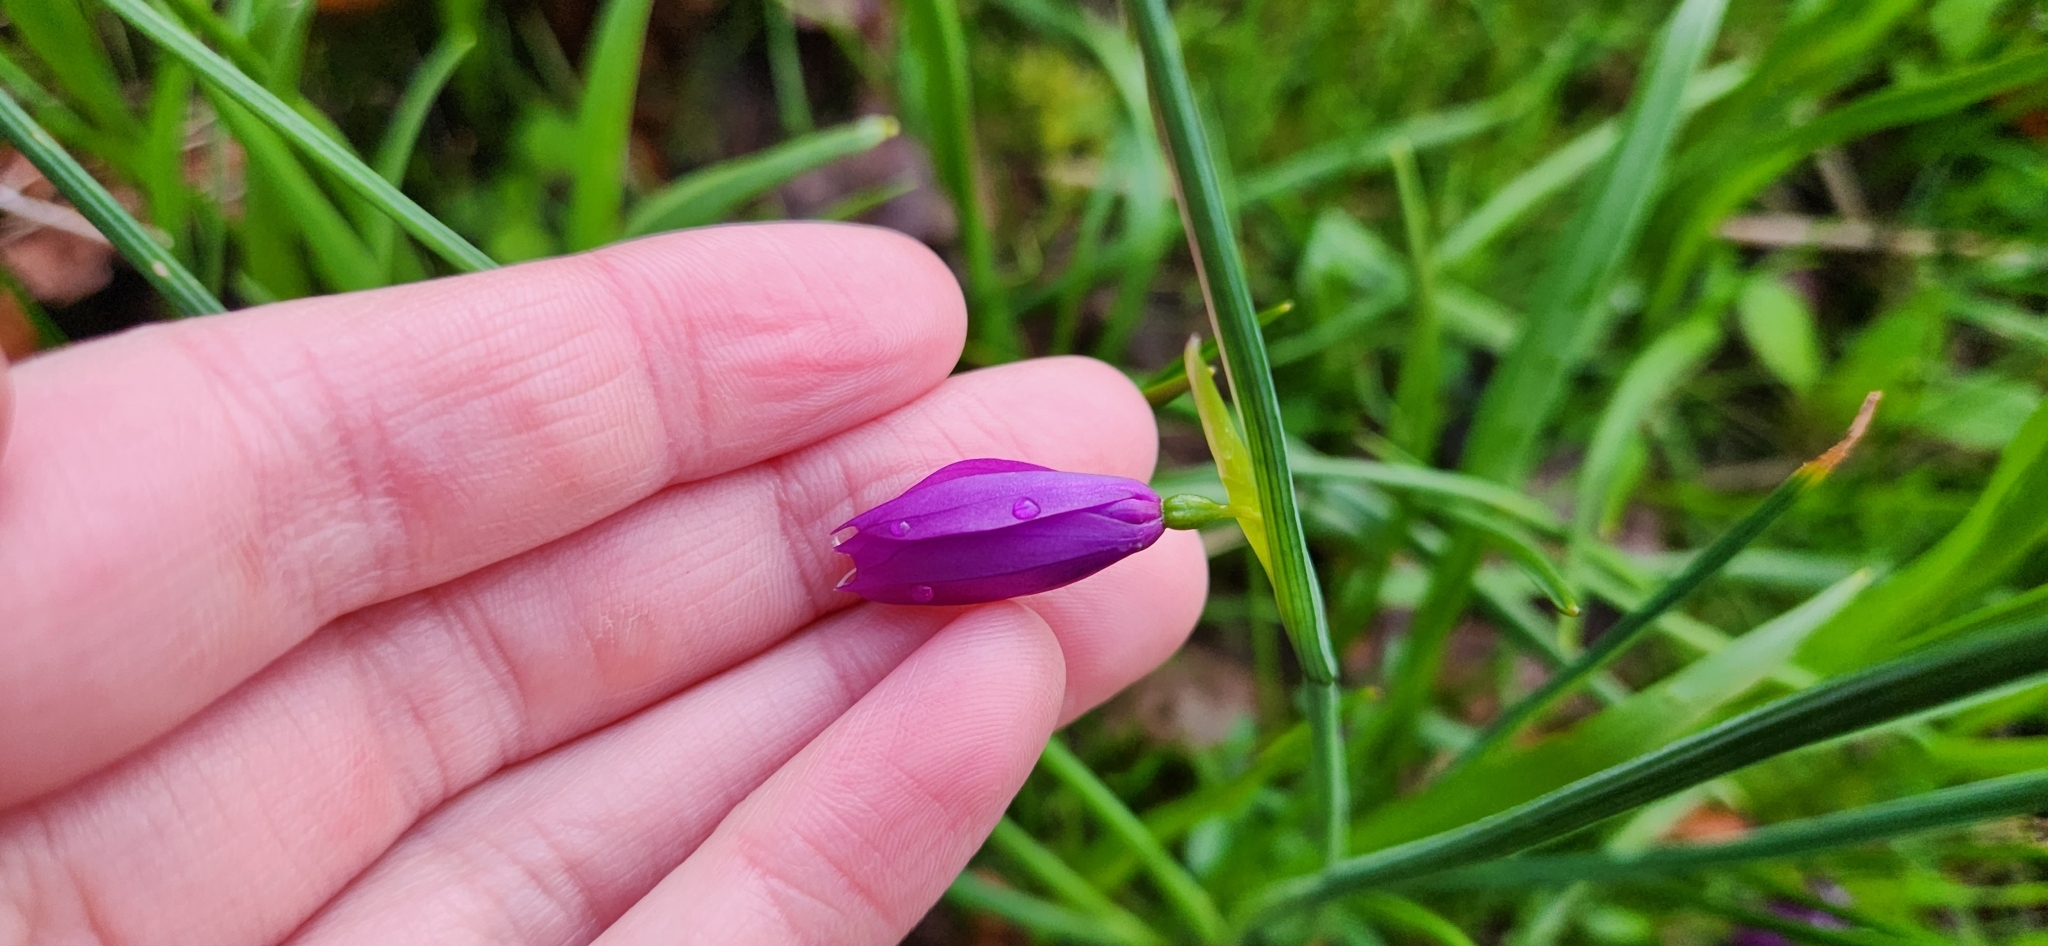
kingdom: Plantae
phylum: Tracheophyta
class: Liliopsida
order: Asparagales
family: Iridaceae
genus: Olsynium
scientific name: Olsynium douglasii
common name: Douglas' grasswidow
